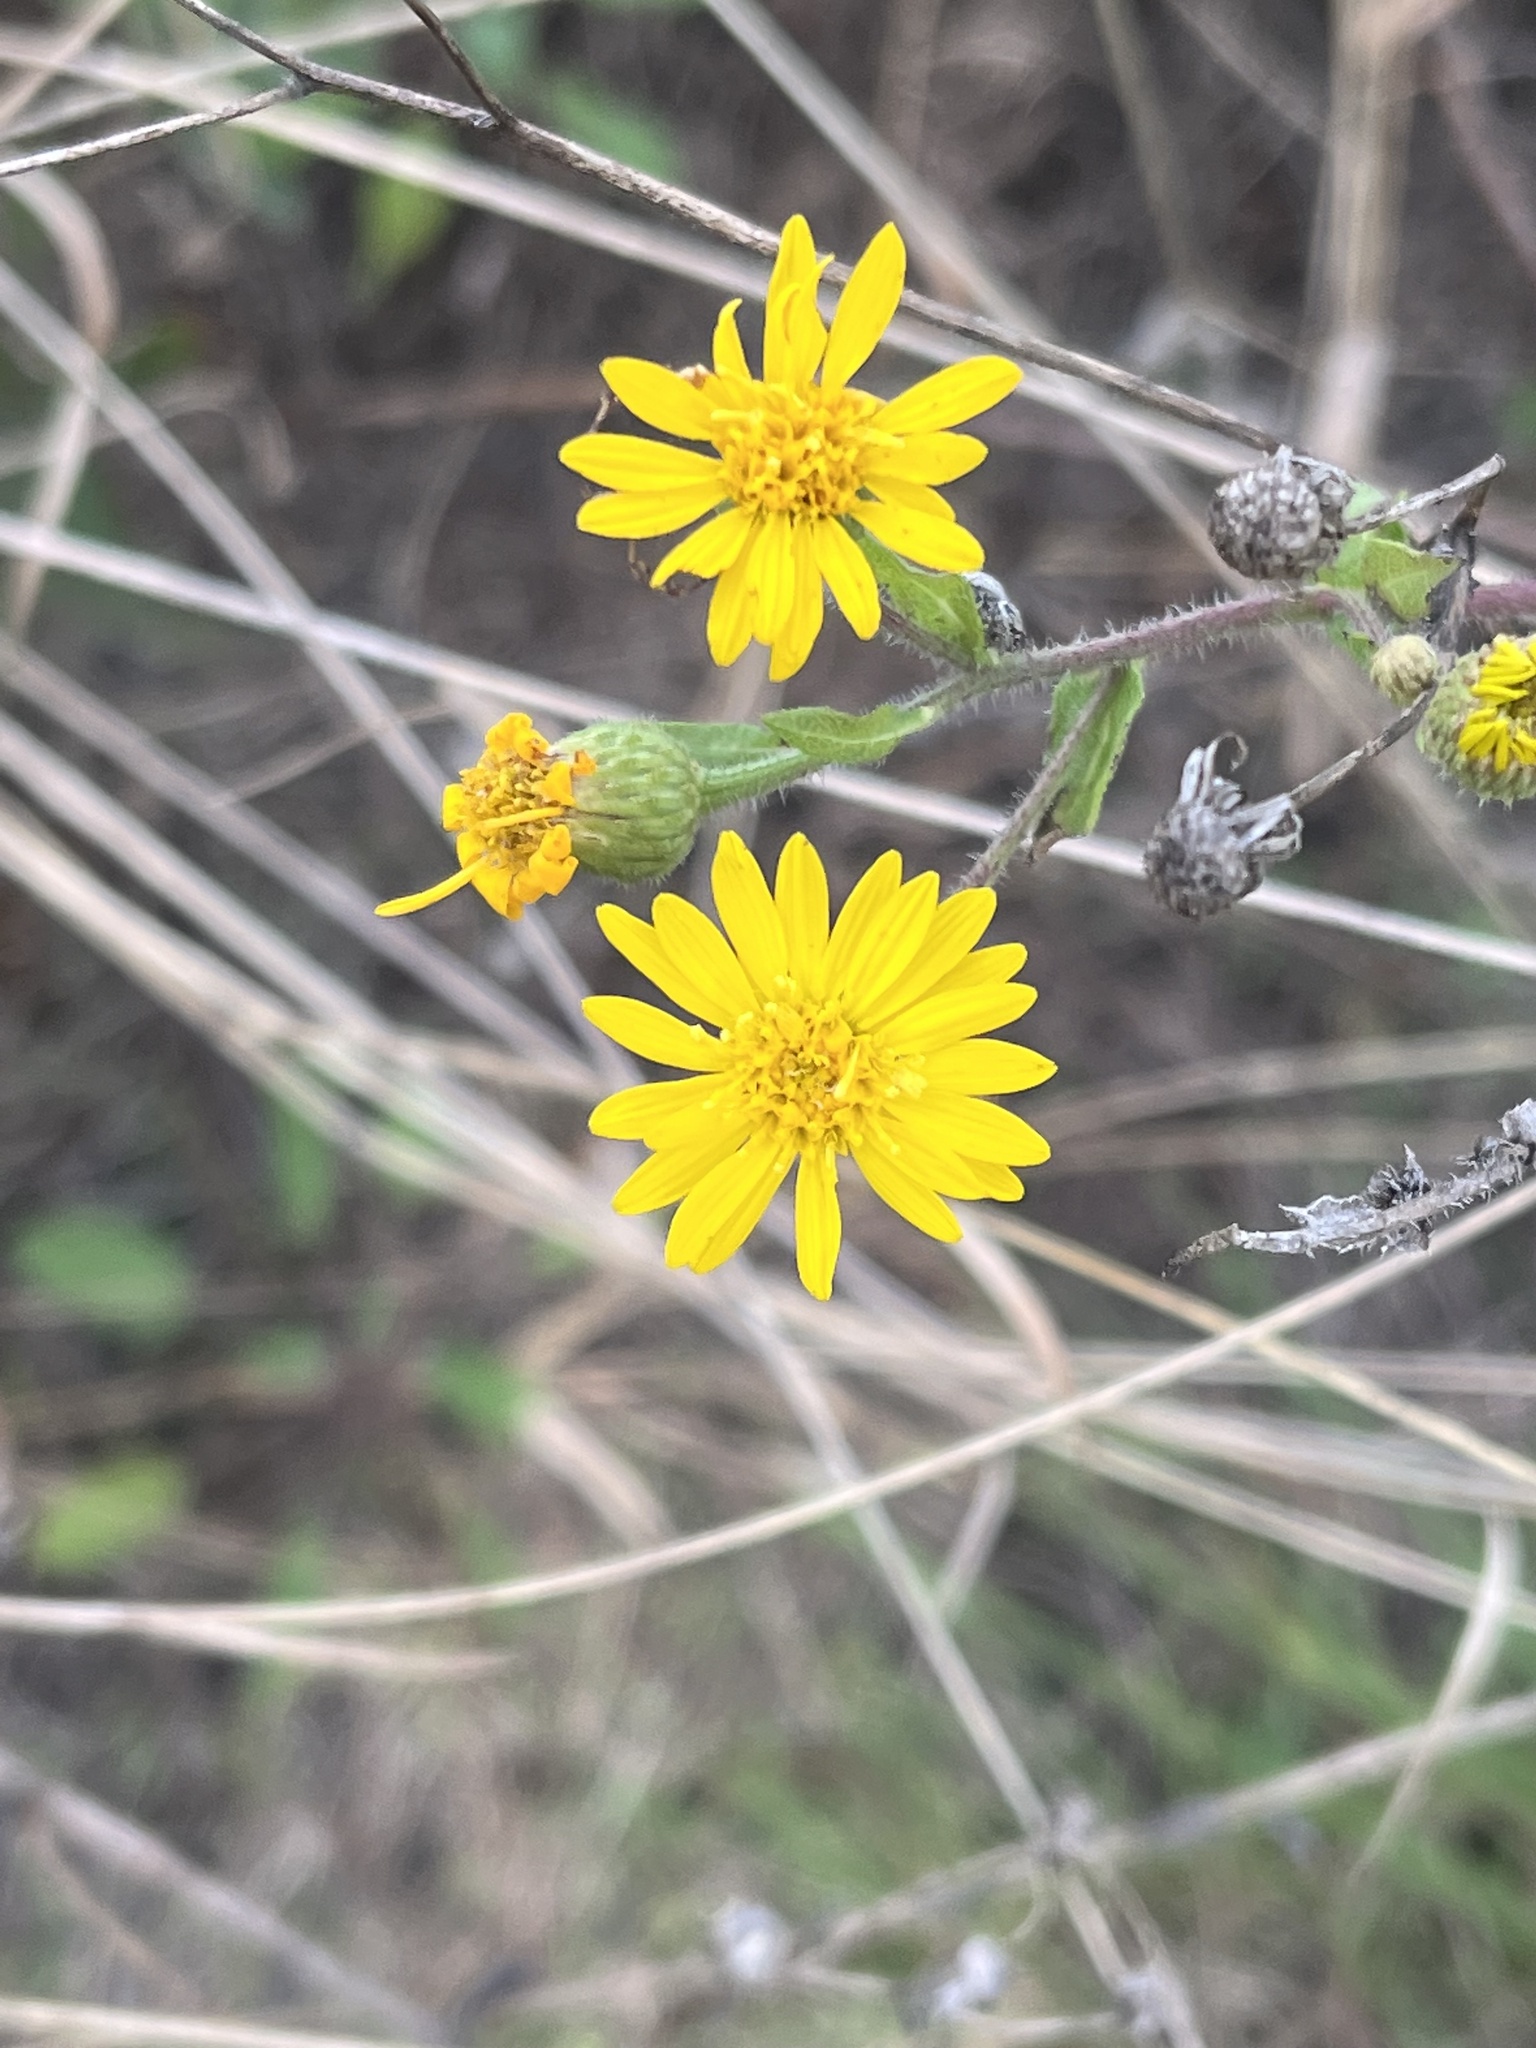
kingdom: Plantae
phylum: Tracheophyta
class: Magnoliopsida
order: Asterales
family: Asteraceae
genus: Heterotheca
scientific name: Heterotheca subaxillaris
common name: Camphorweed
